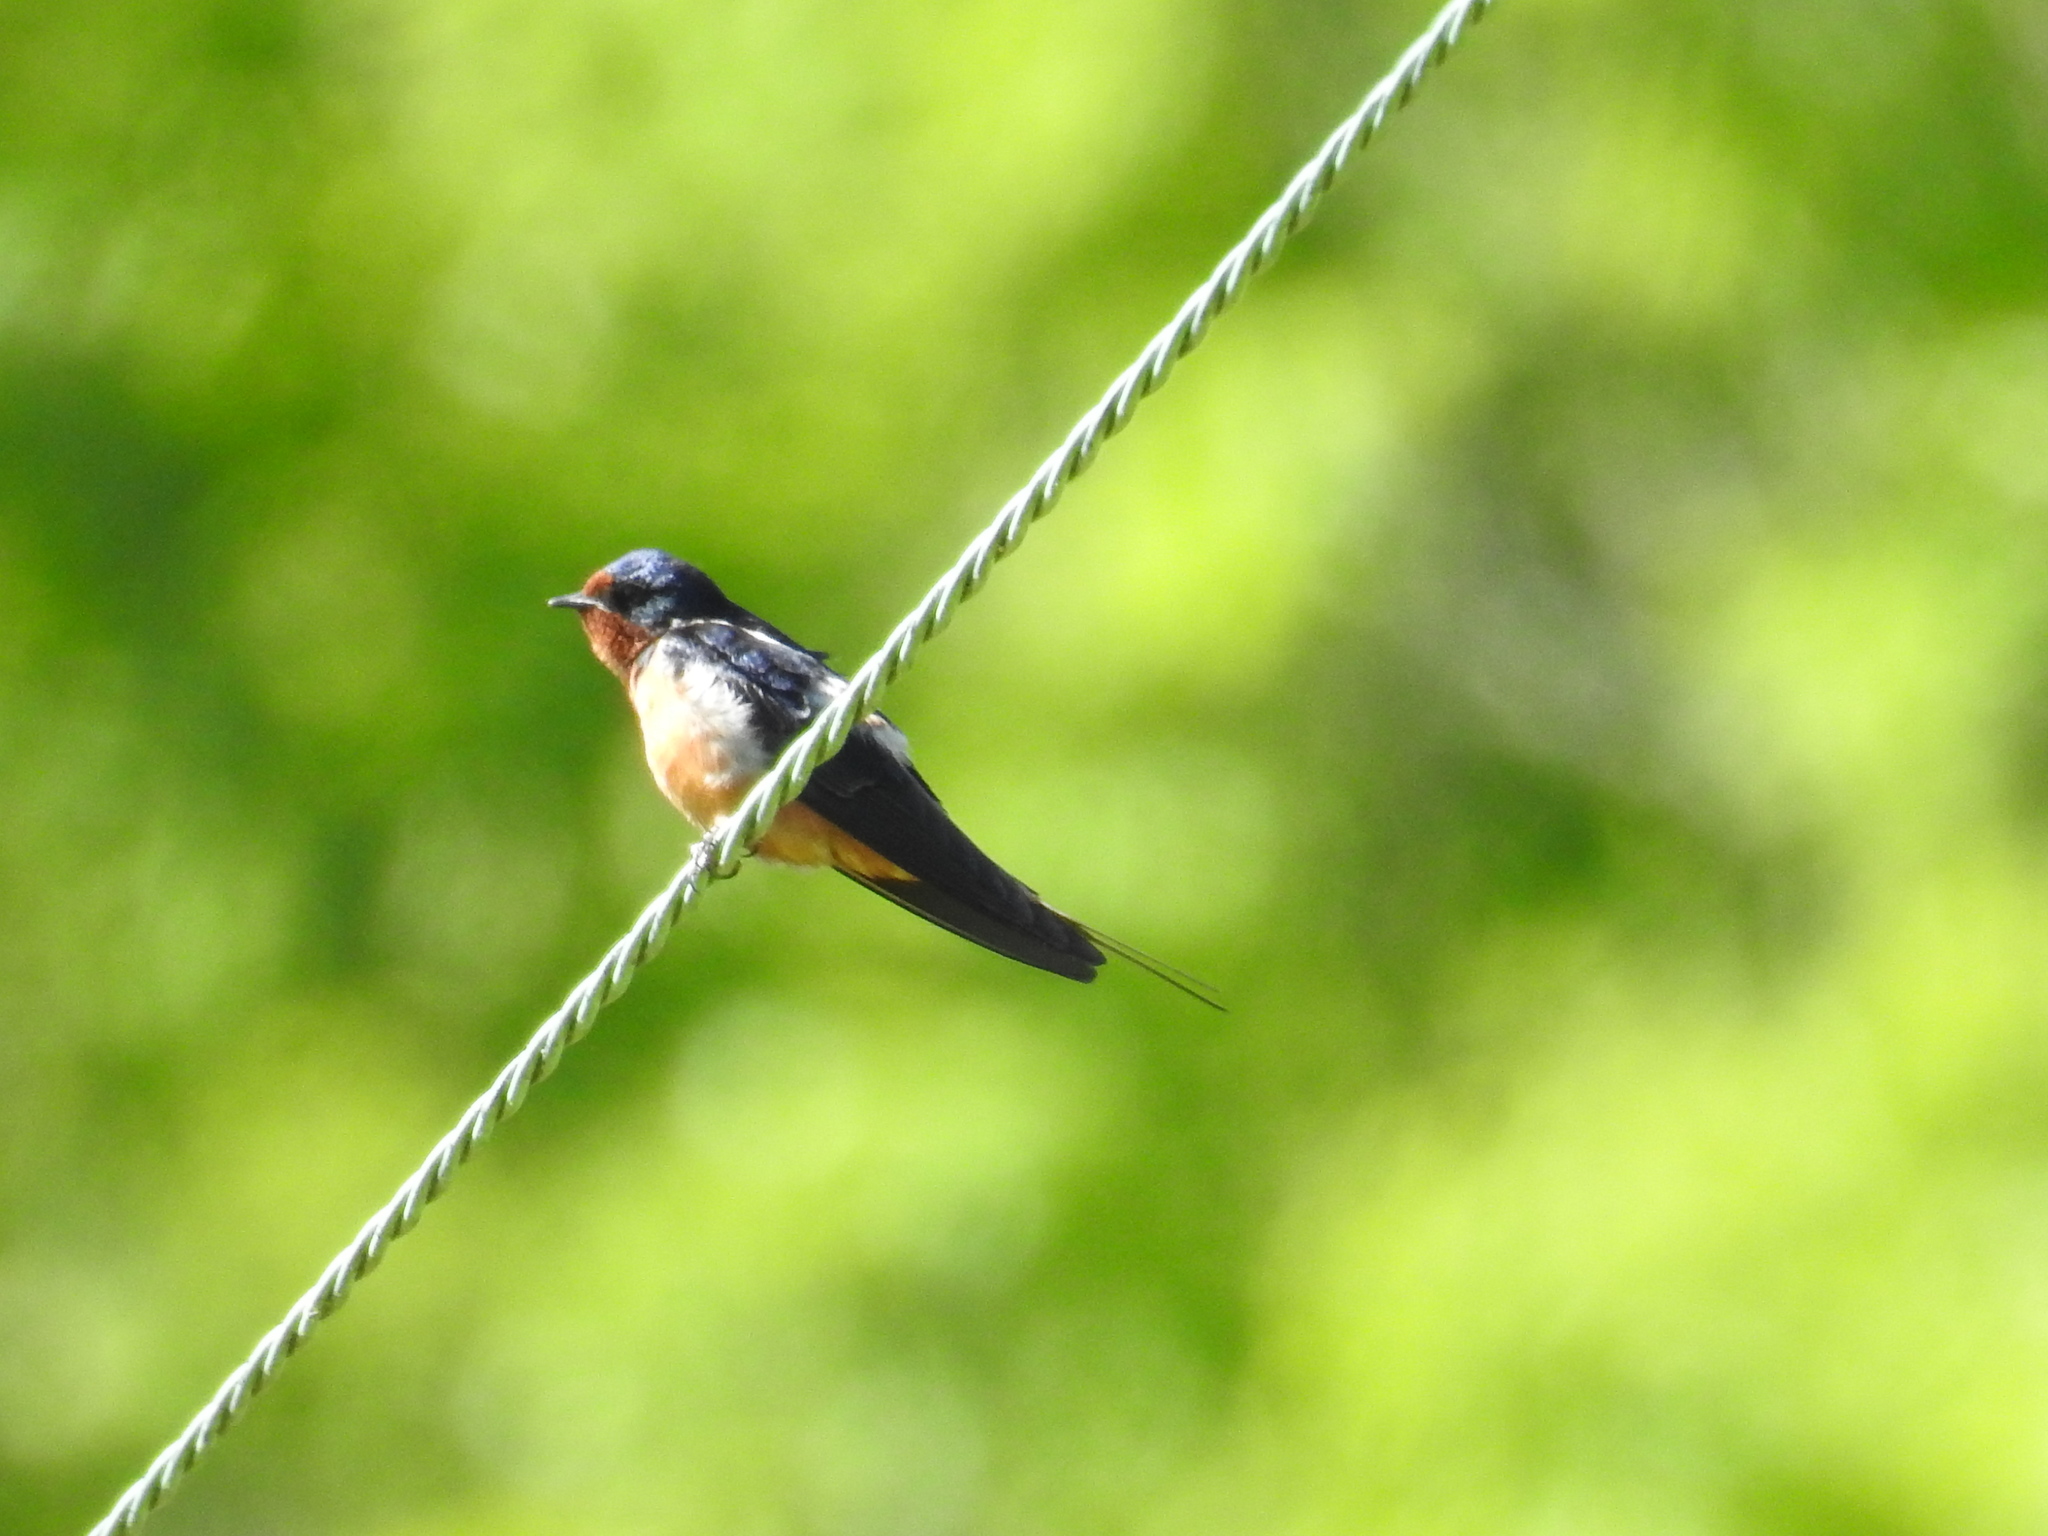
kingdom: Animalia
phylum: Chordata
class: Aves
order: Passeriformes
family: Hirundinidae
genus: Hirundo
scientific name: Hirundo rustica
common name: Barn swallow
